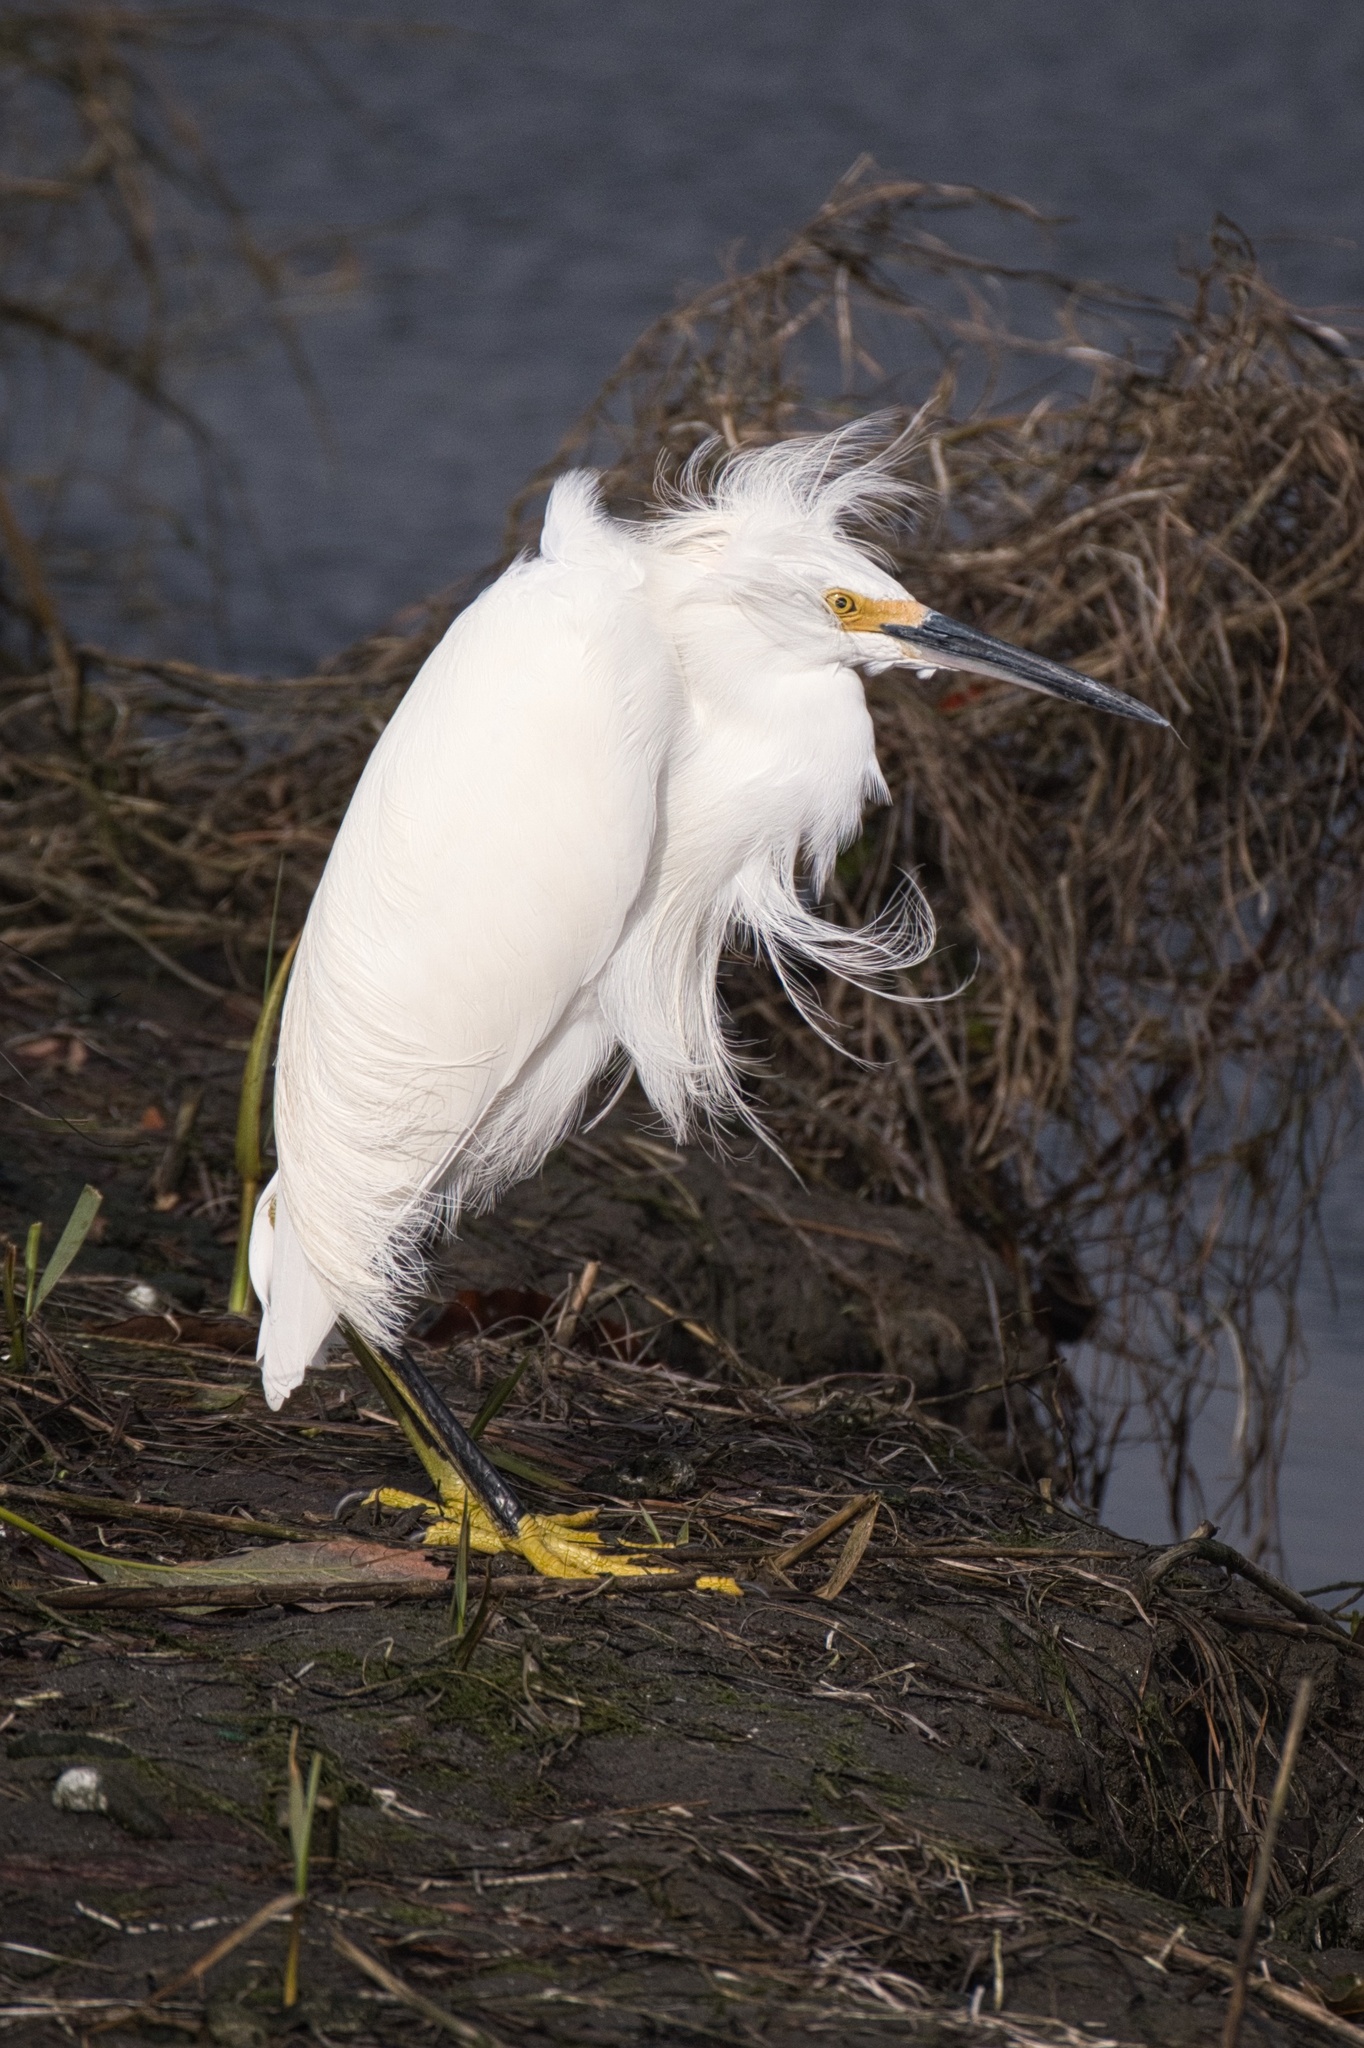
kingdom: Animalia
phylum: Chordata
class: Aves
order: Pelecaniformes
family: Ardeidae
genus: Egretta
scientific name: Egretta thula
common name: Snowy egret
